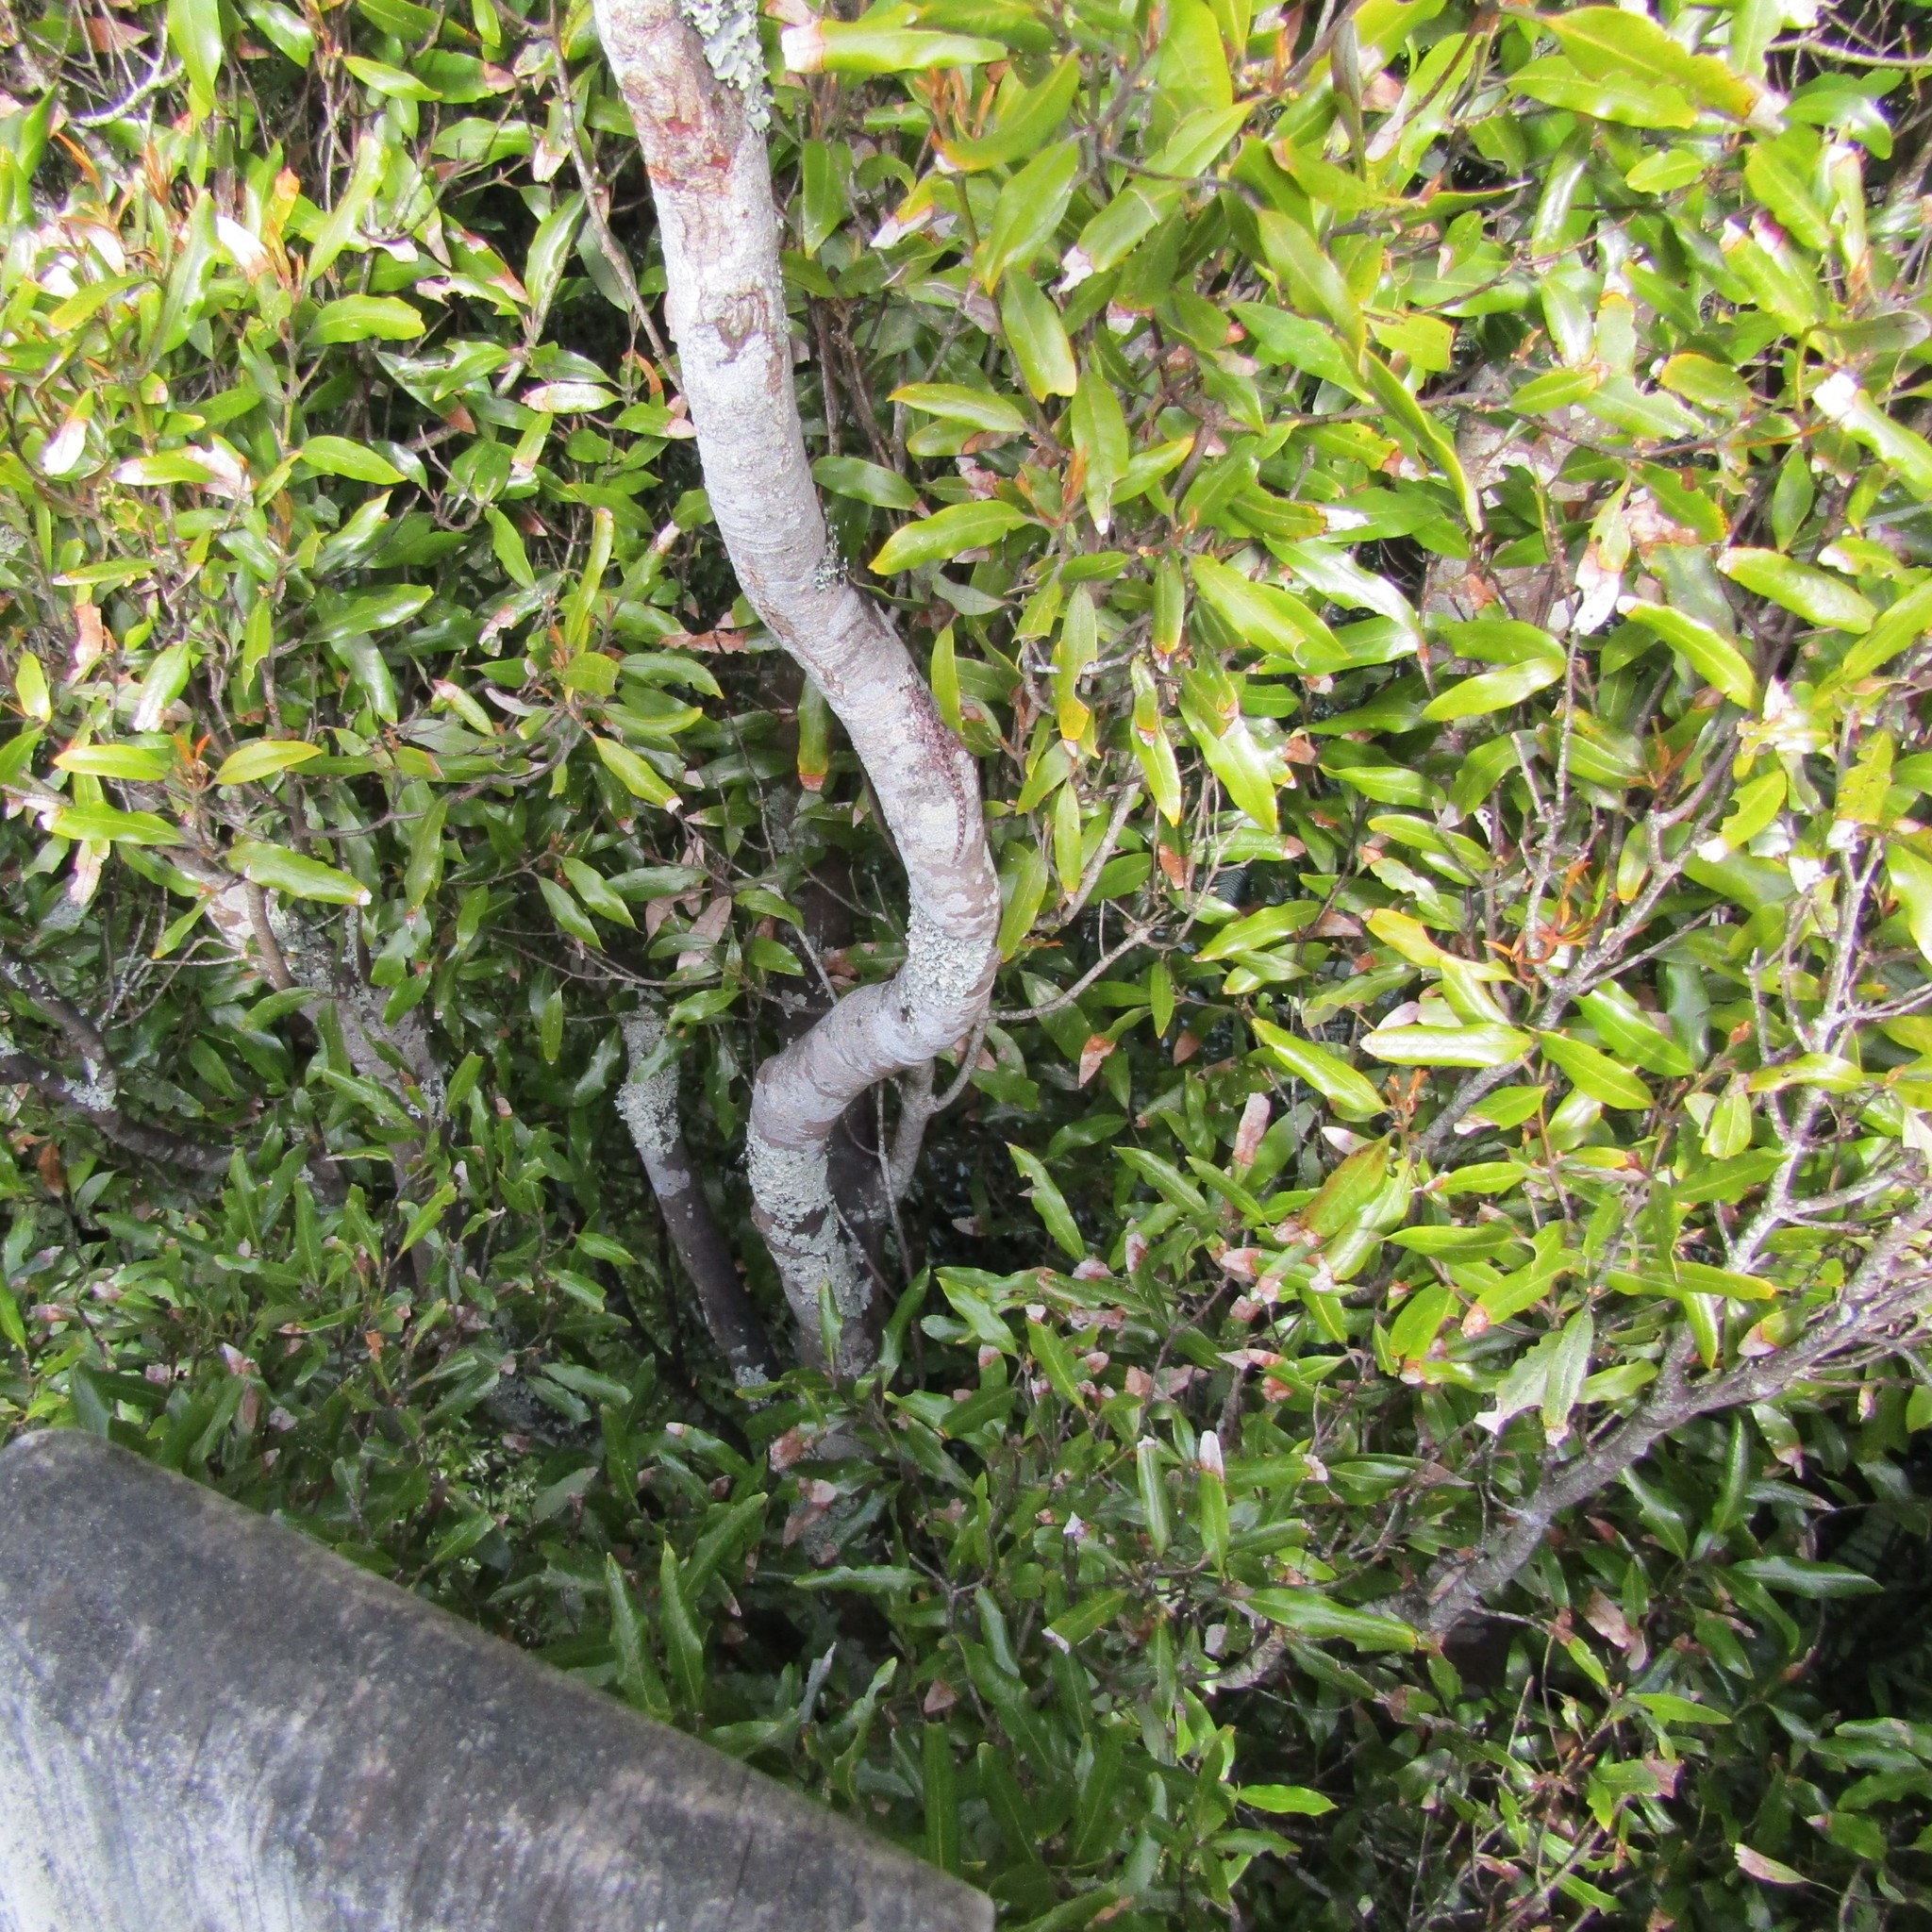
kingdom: Animalia
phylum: Chordata
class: Squamata
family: Diplodactylidae
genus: Mokopirirakau
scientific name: Mokopirirakau
